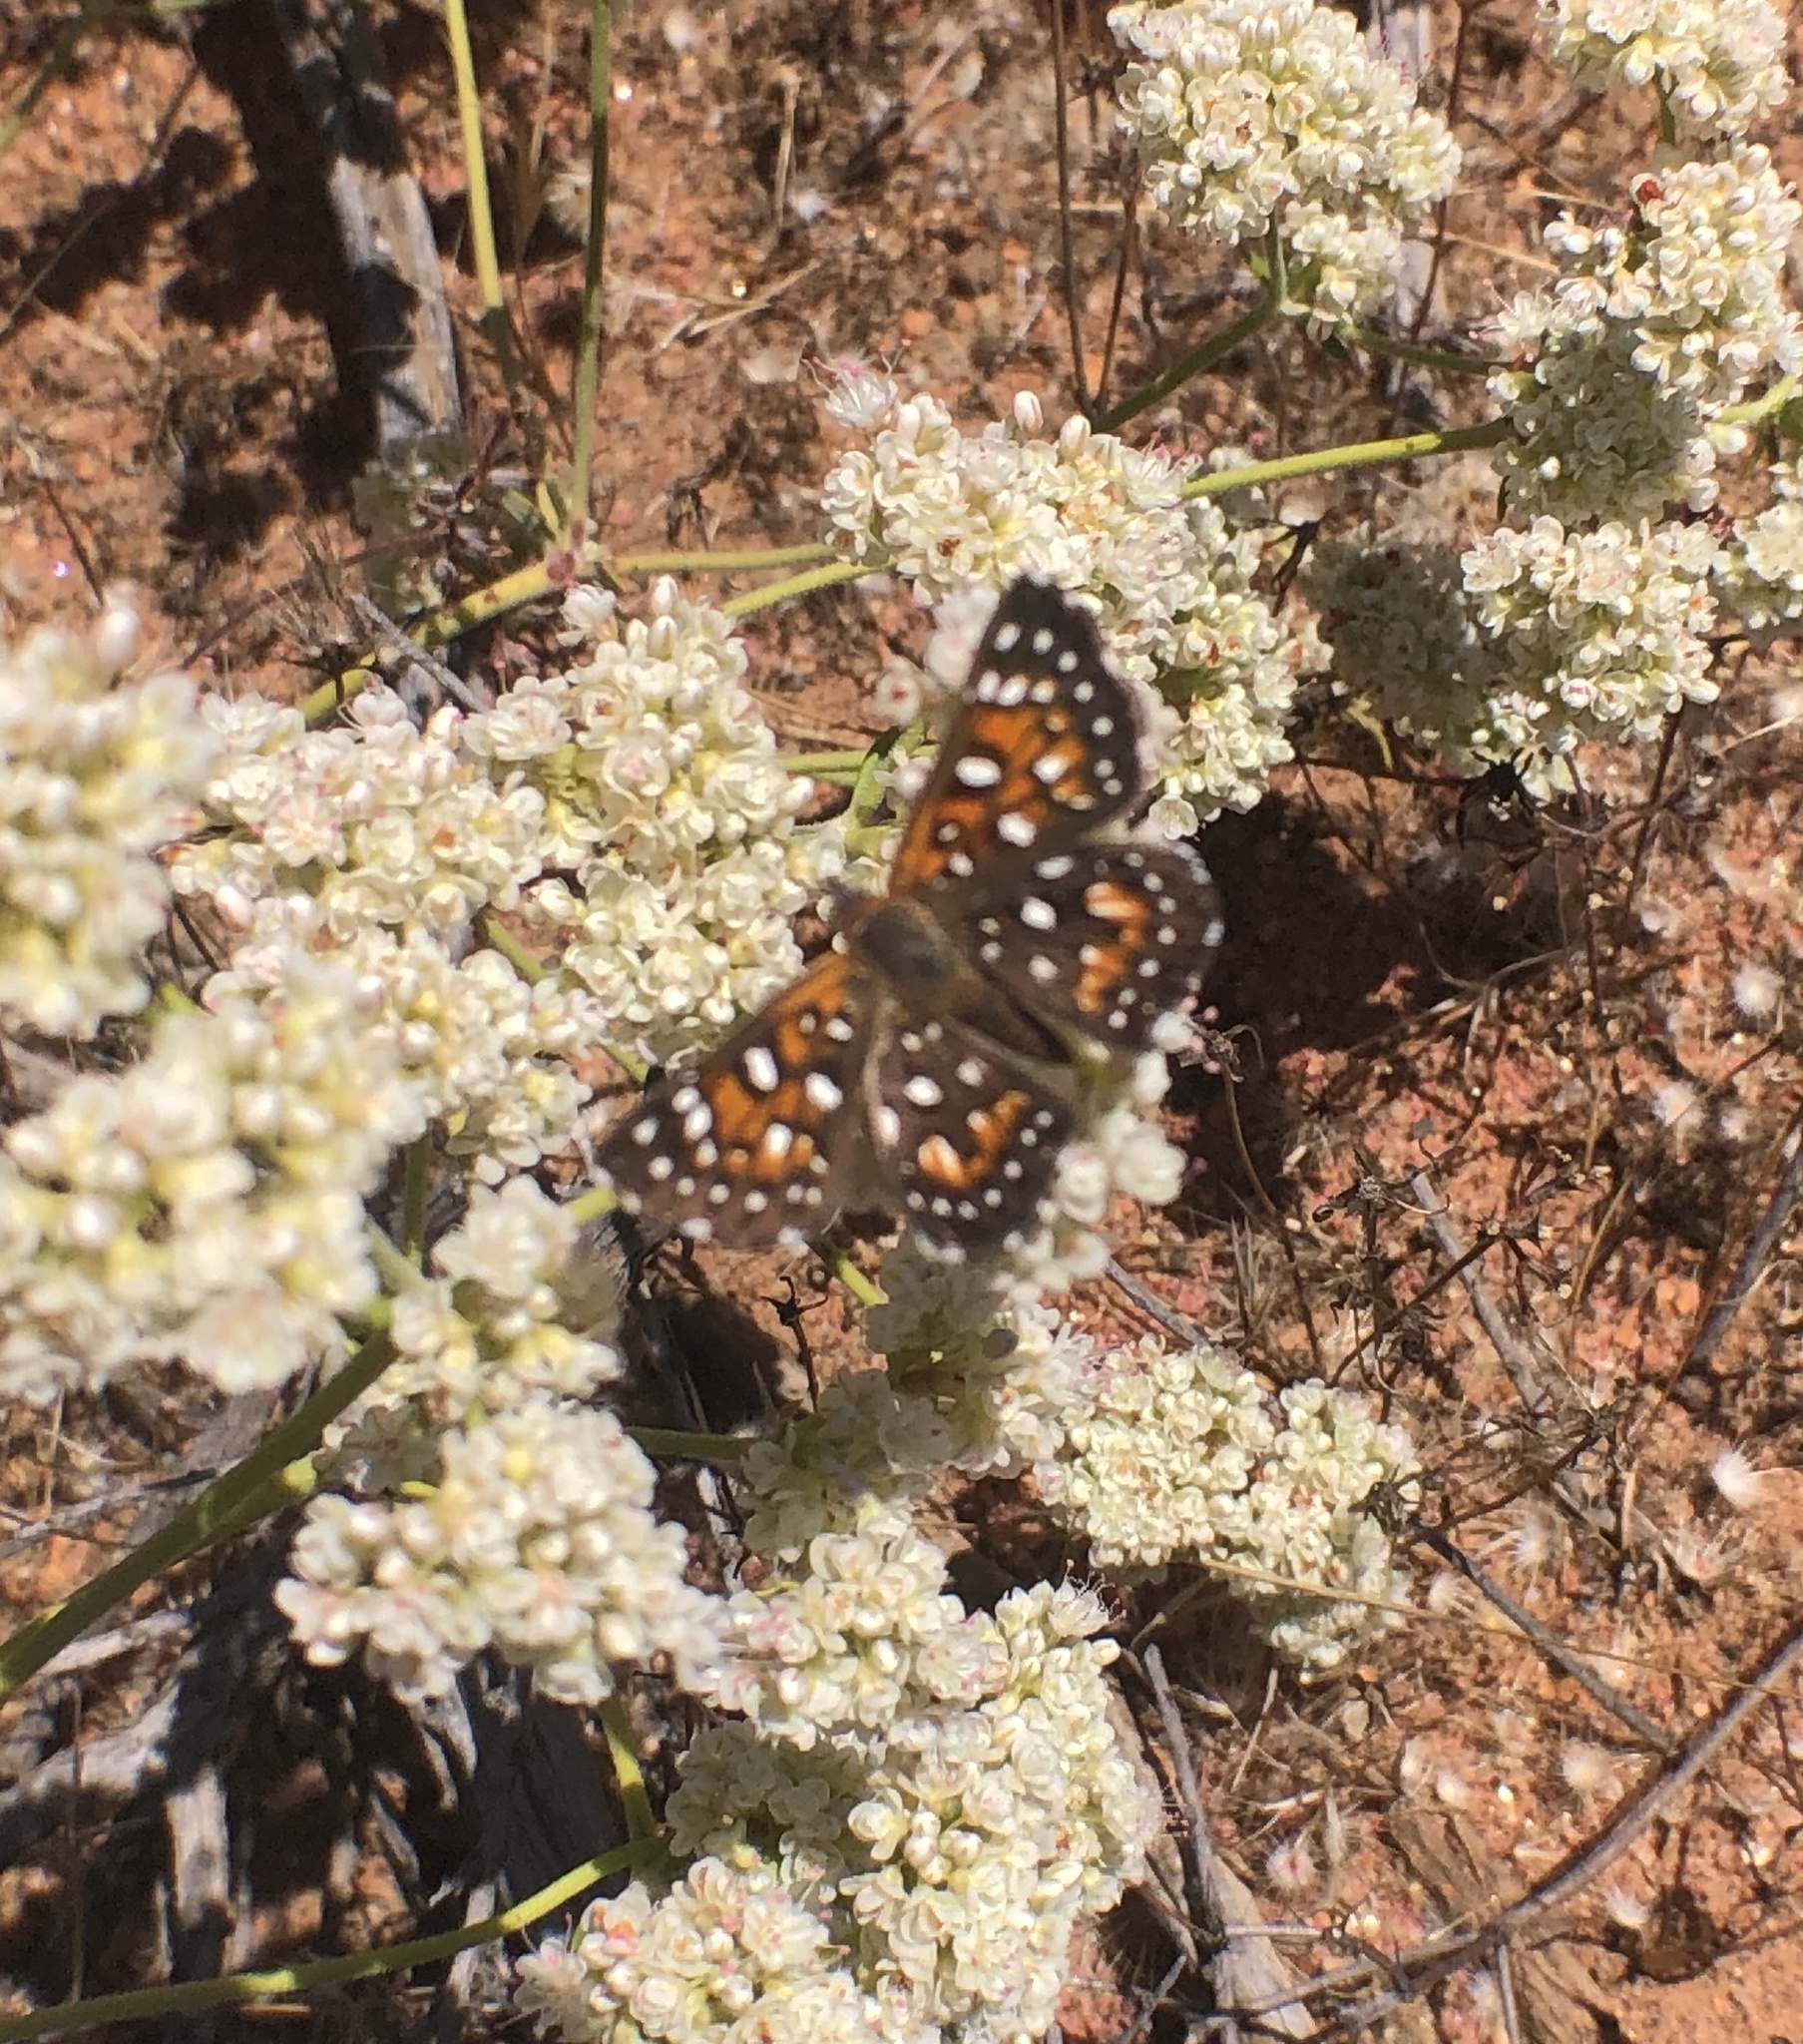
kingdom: Animalia
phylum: Arthropoda
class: Insecta
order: Lepidoptera
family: Riodinidae
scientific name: Riodinidae
